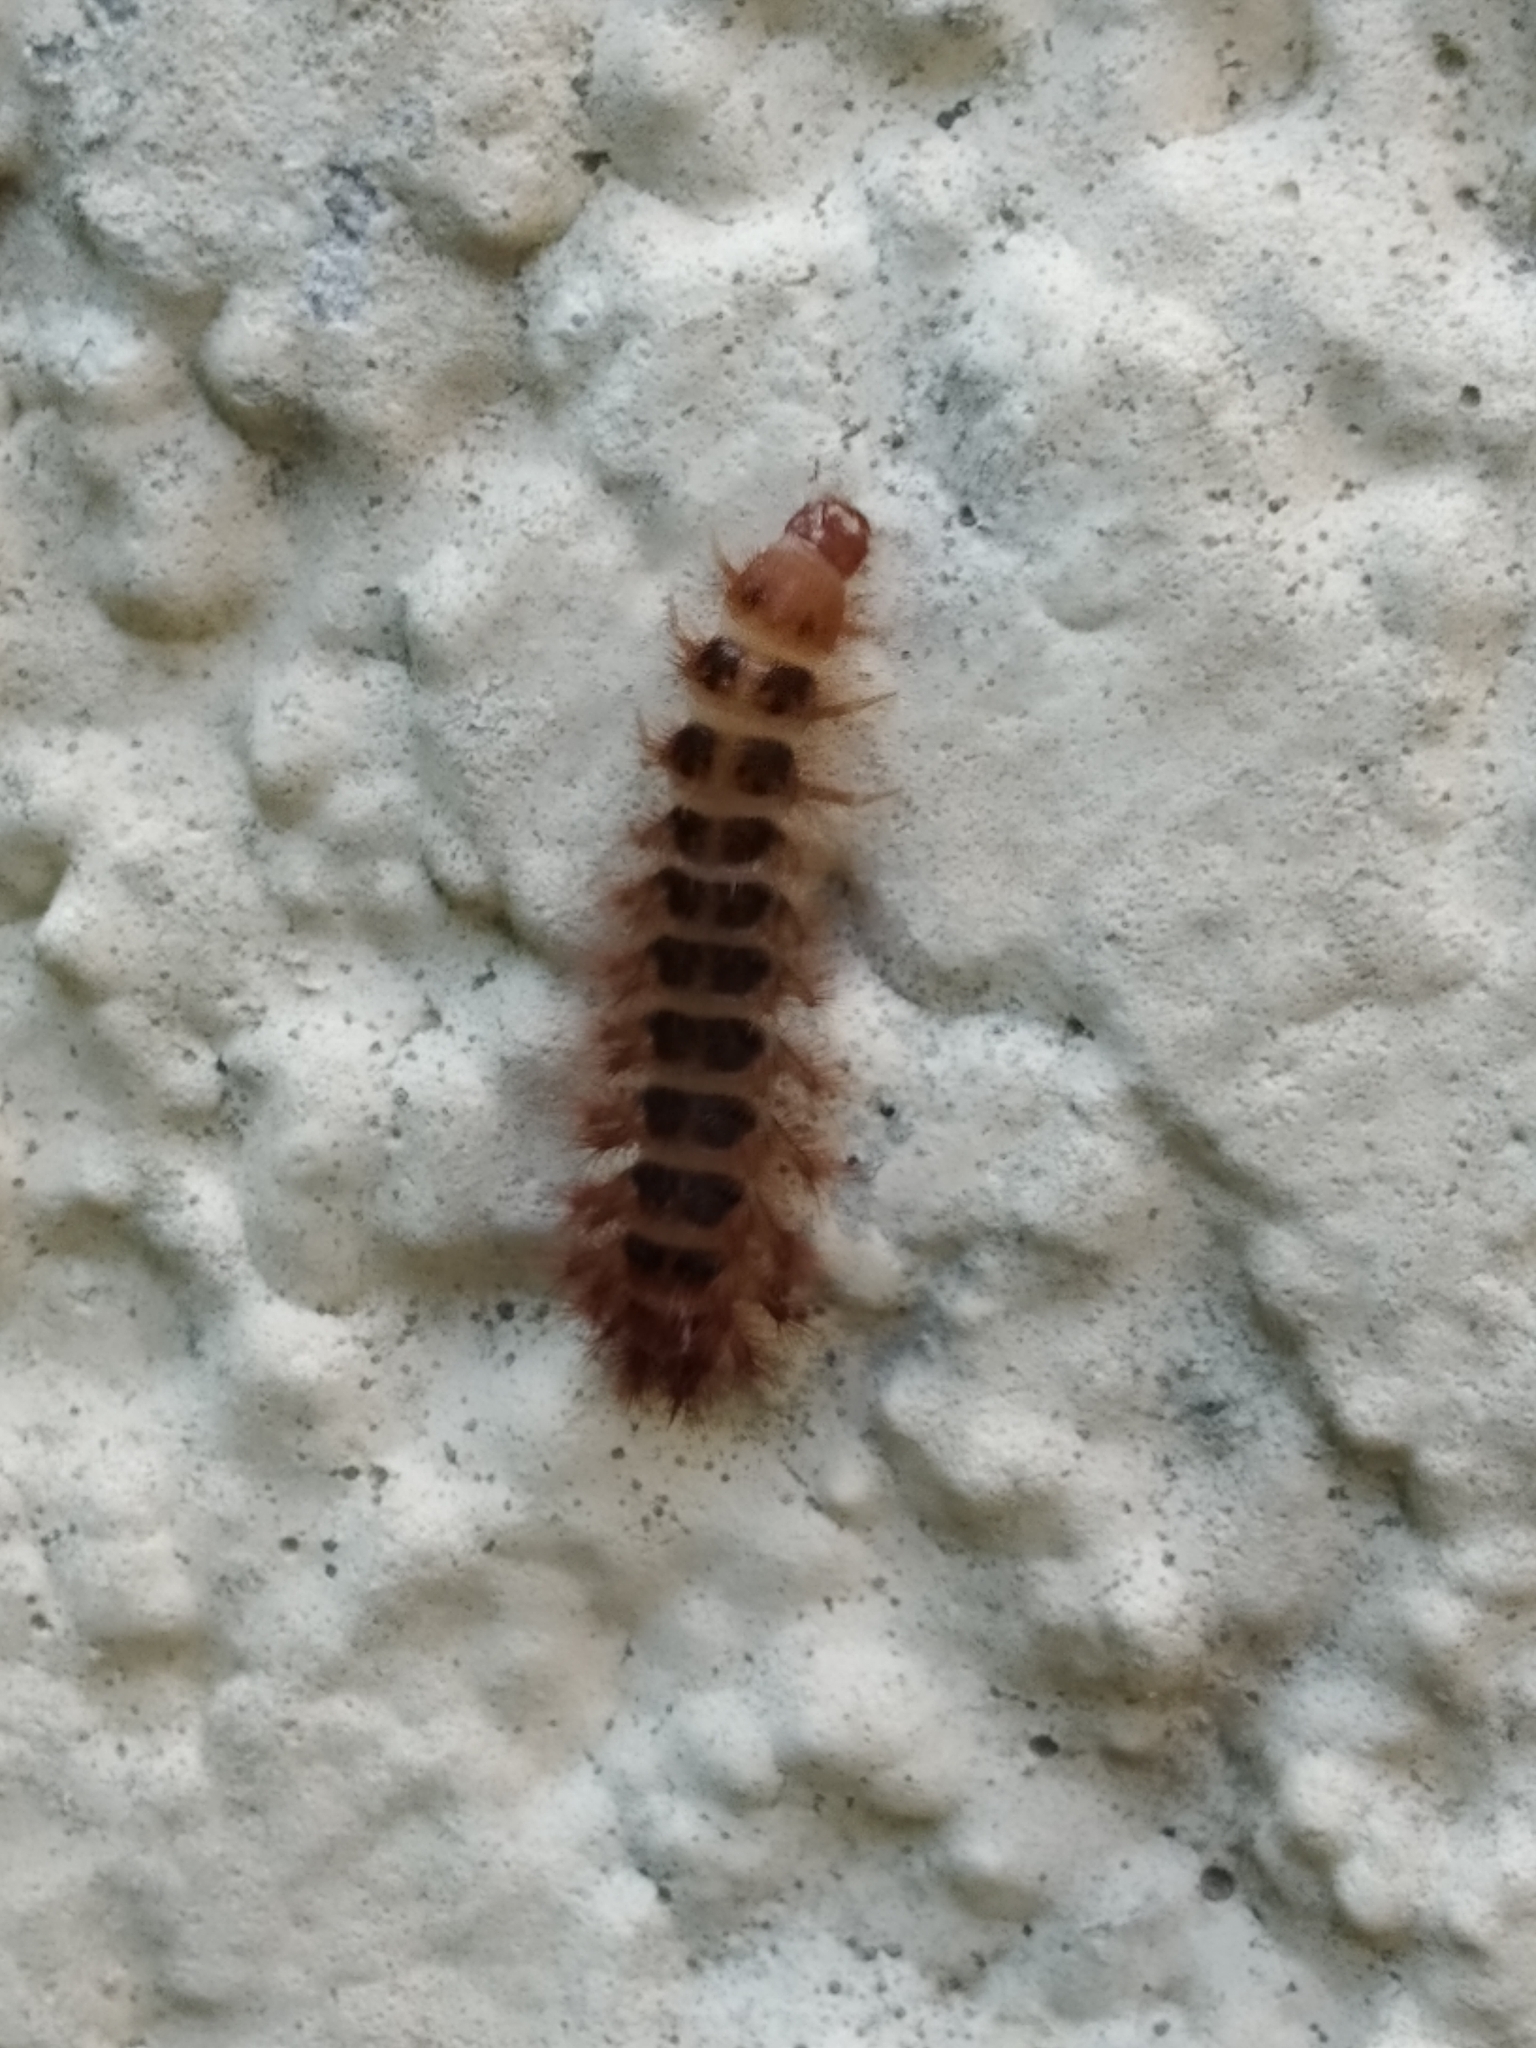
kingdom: Animalia
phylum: Arthropoda
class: Insecta
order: Coleoptera
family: Drilidae
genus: Drilus
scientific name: Drilus flavescens
